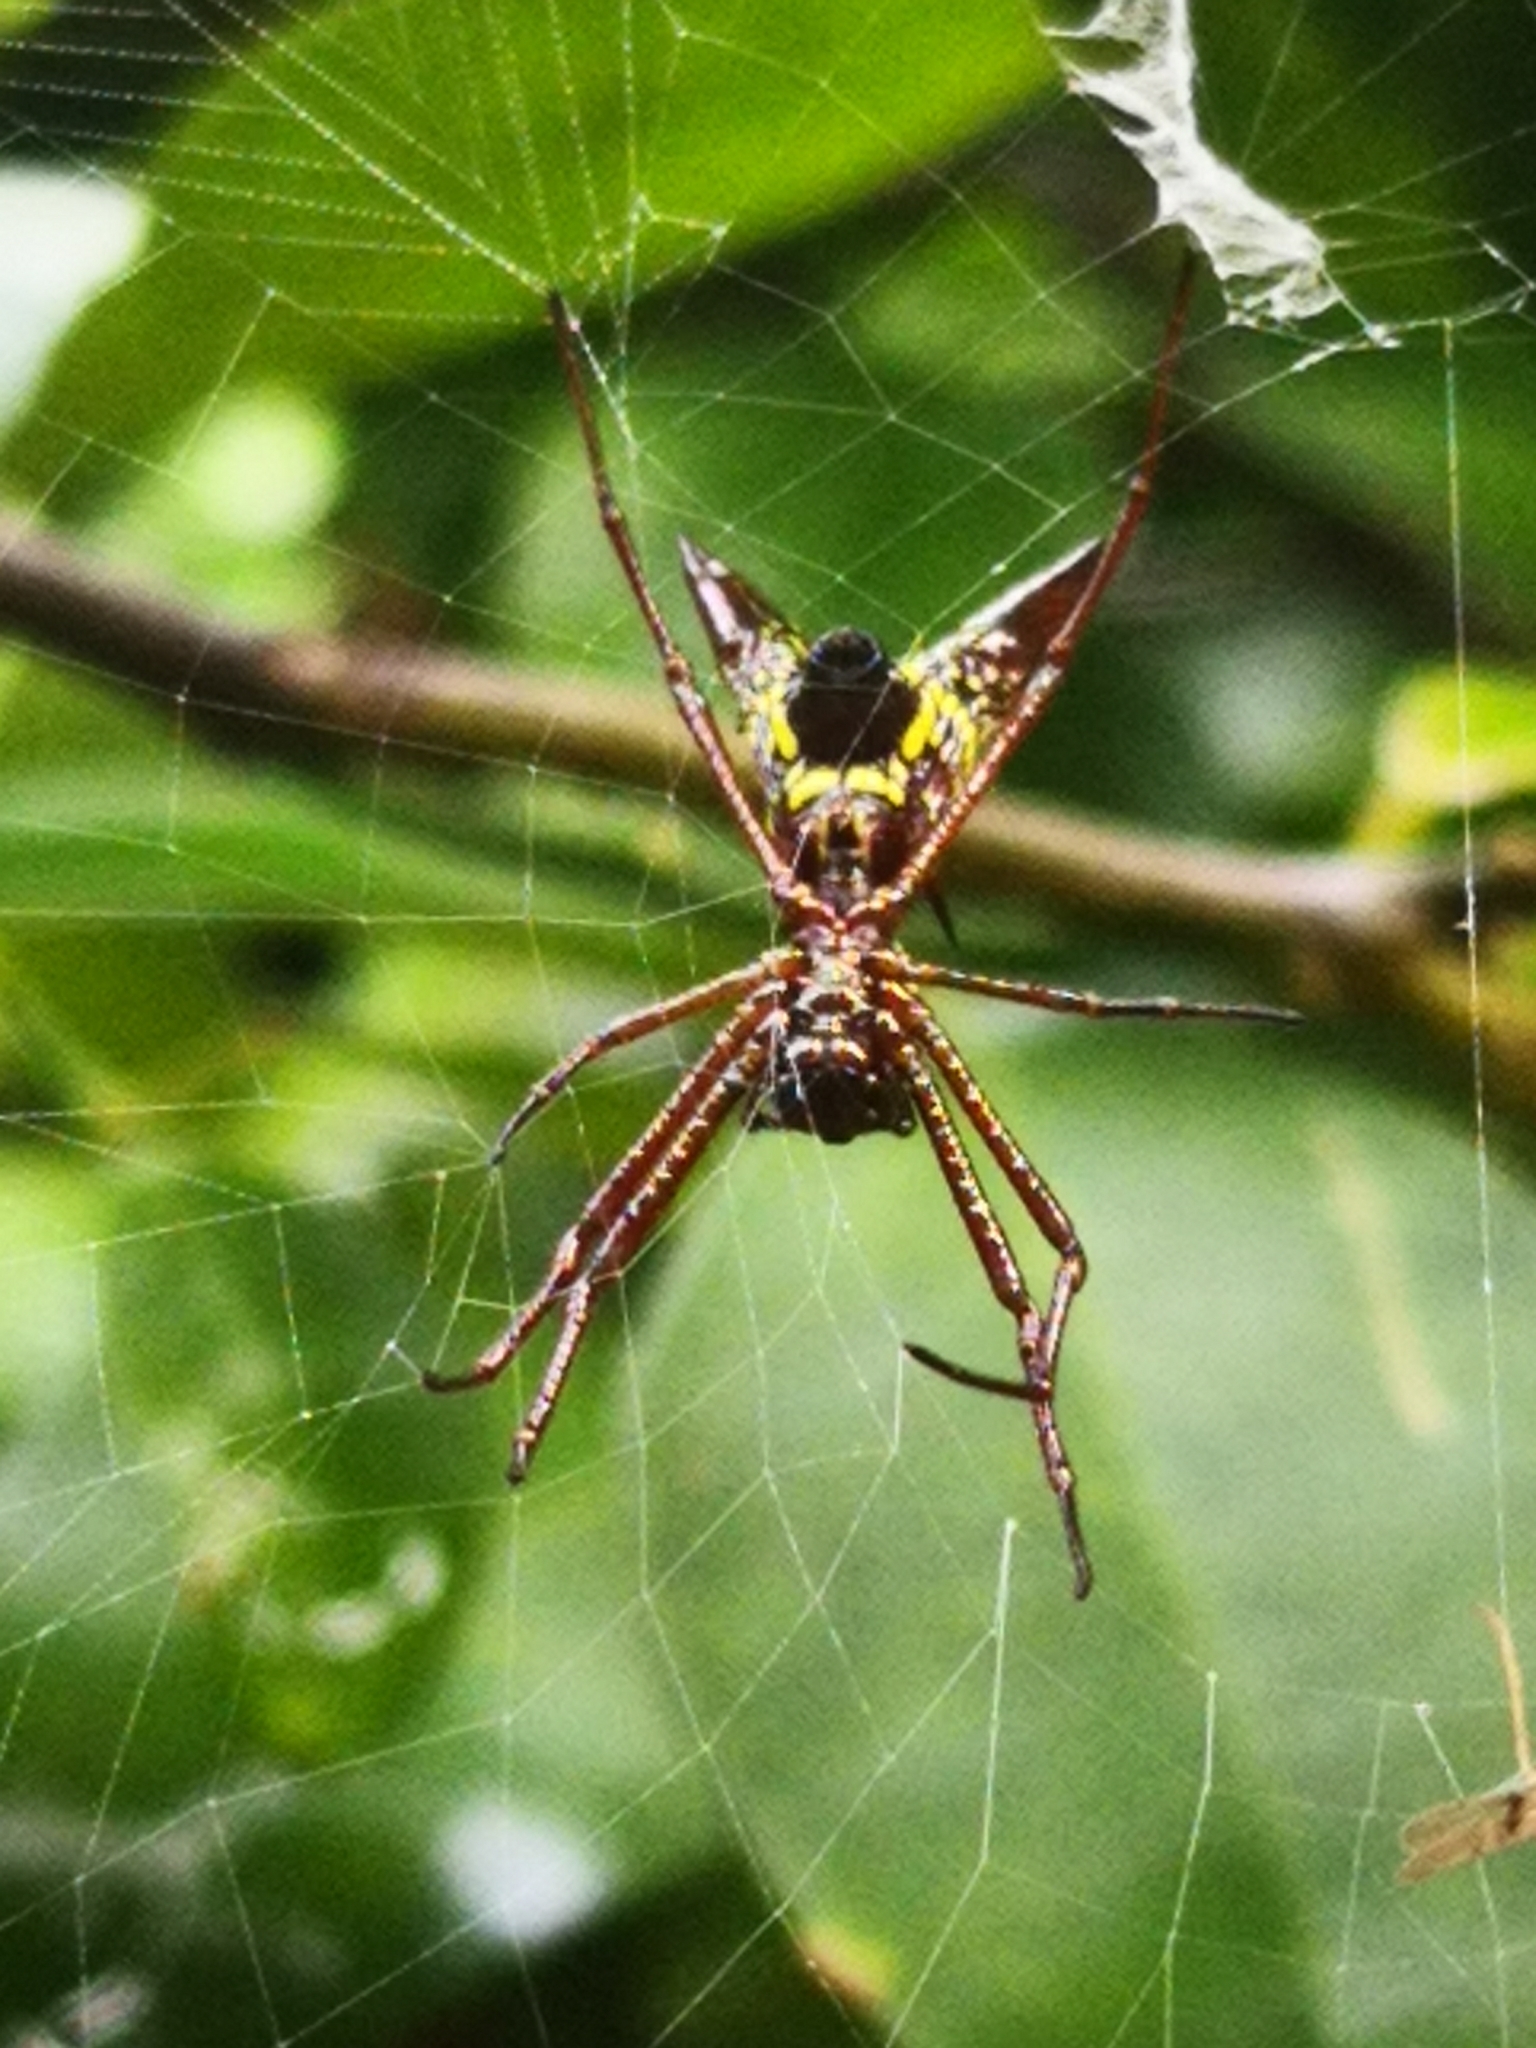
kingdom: Animalia
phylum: Arthropoda
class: Arachnida
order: Araneae
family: Araneidae
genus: Micrathena
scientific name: Micrathena sexspinosa
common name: Orb weavers
